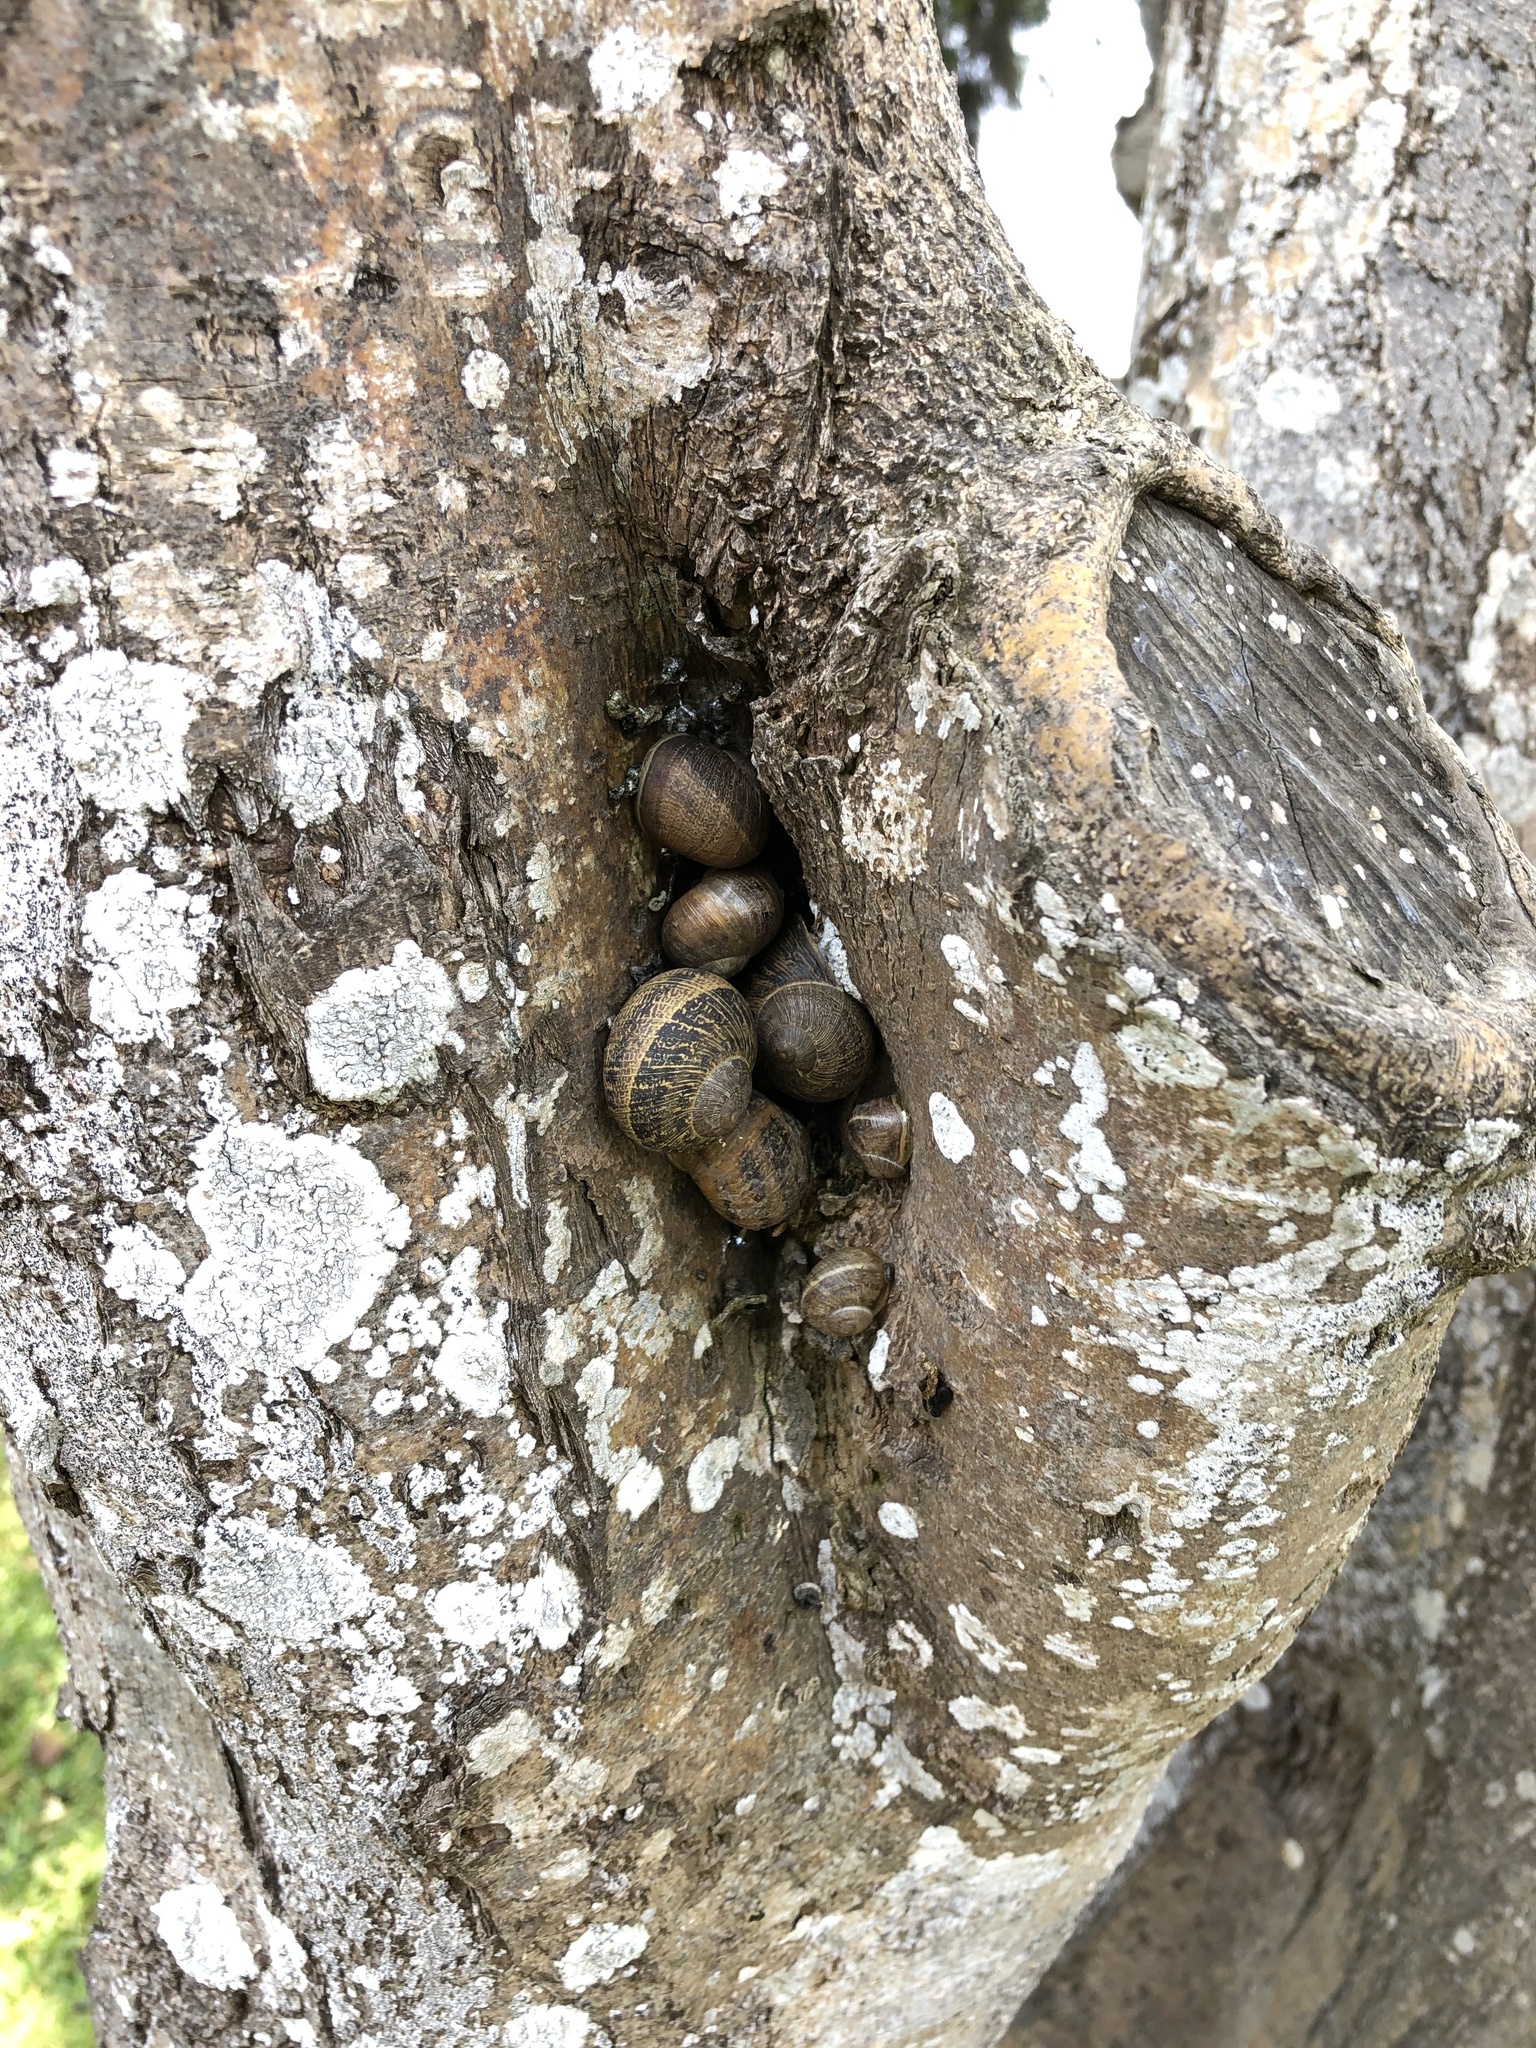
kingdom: Animalia
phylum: Mollusca
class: Gastropoda
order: Stylommatophora
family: Helicidae
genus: Cornu
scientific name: Cornu aspersum
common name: Brown garden snail
